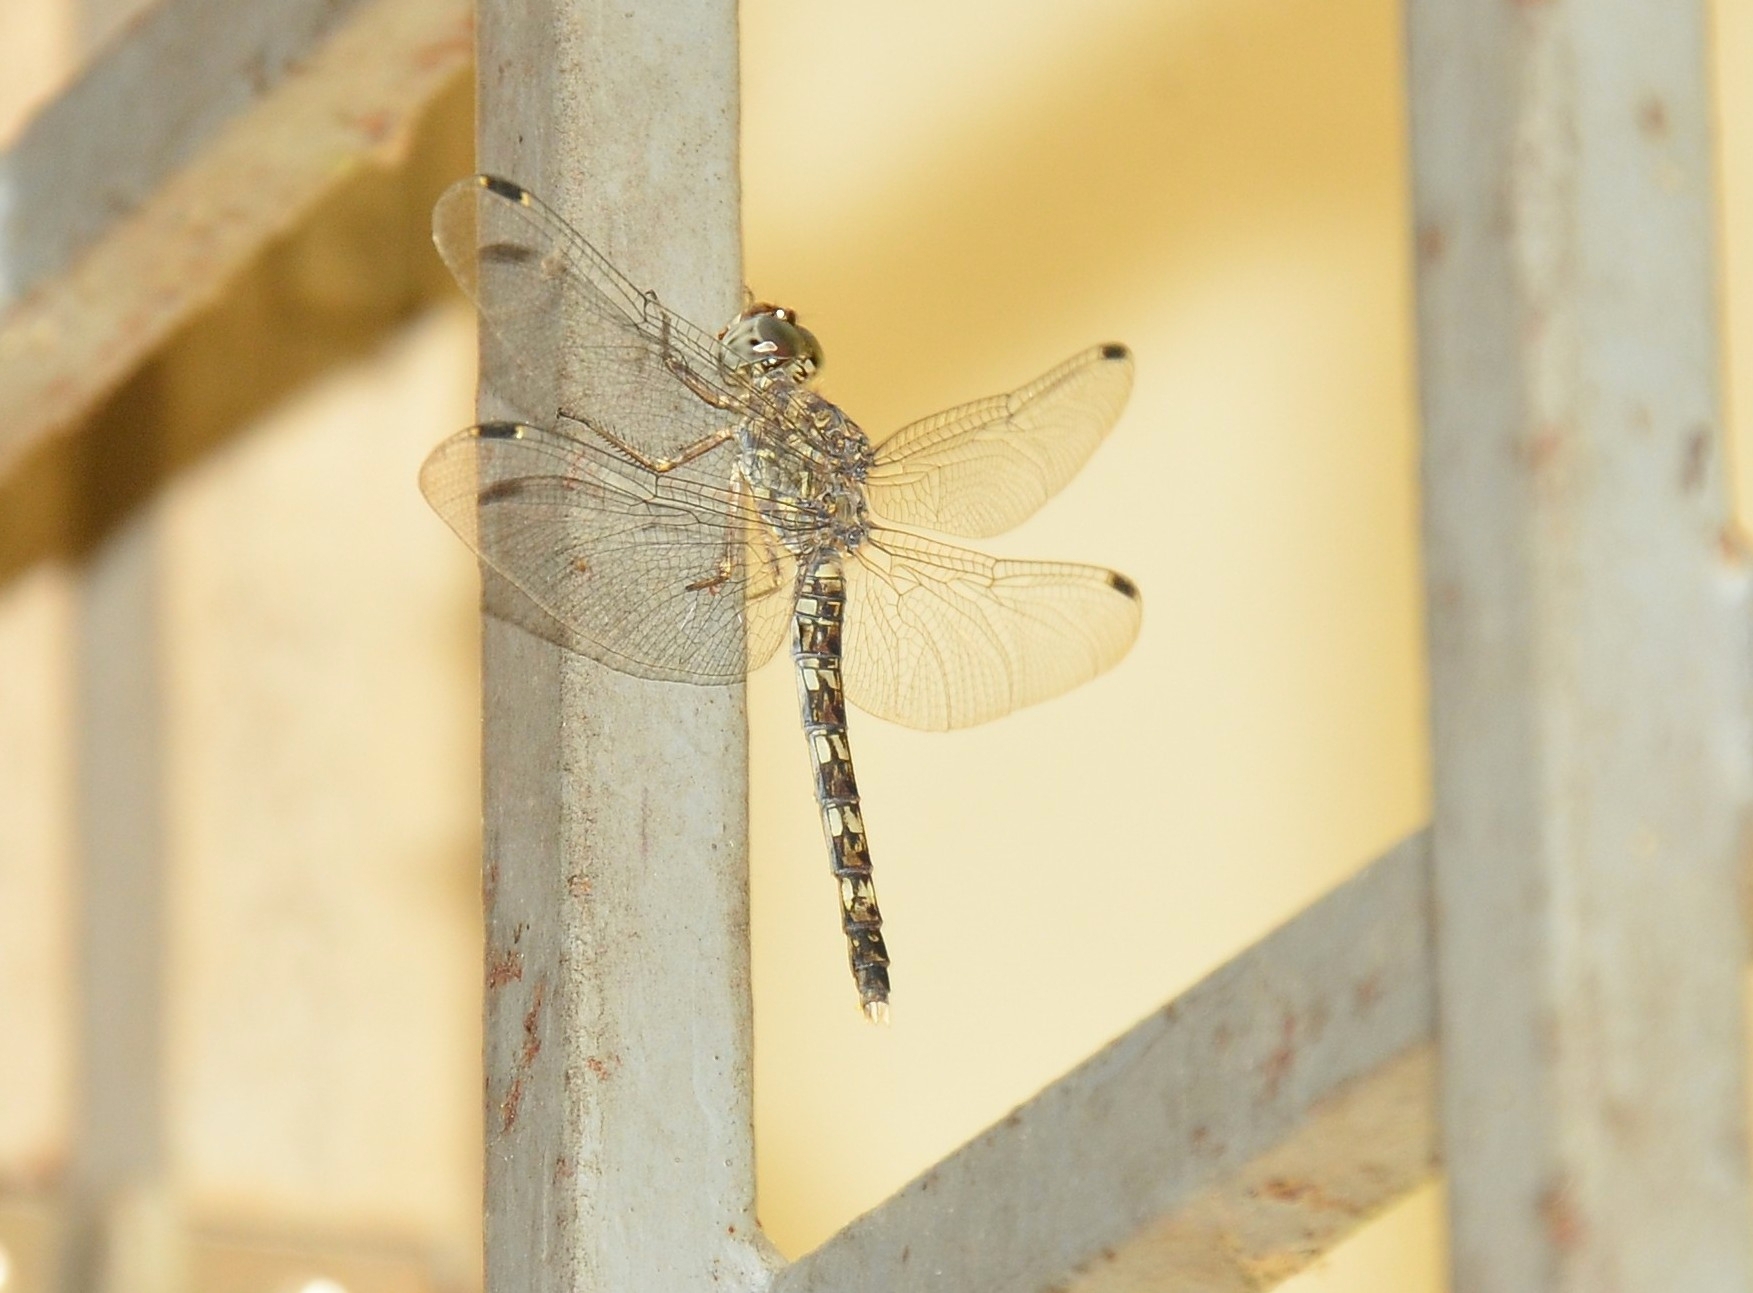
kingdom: Animalia
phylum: Arthropoda
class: Insecta
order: Odonata
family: Libellulidae
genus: Bradinopyga
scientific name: Bradinopyga geminata
